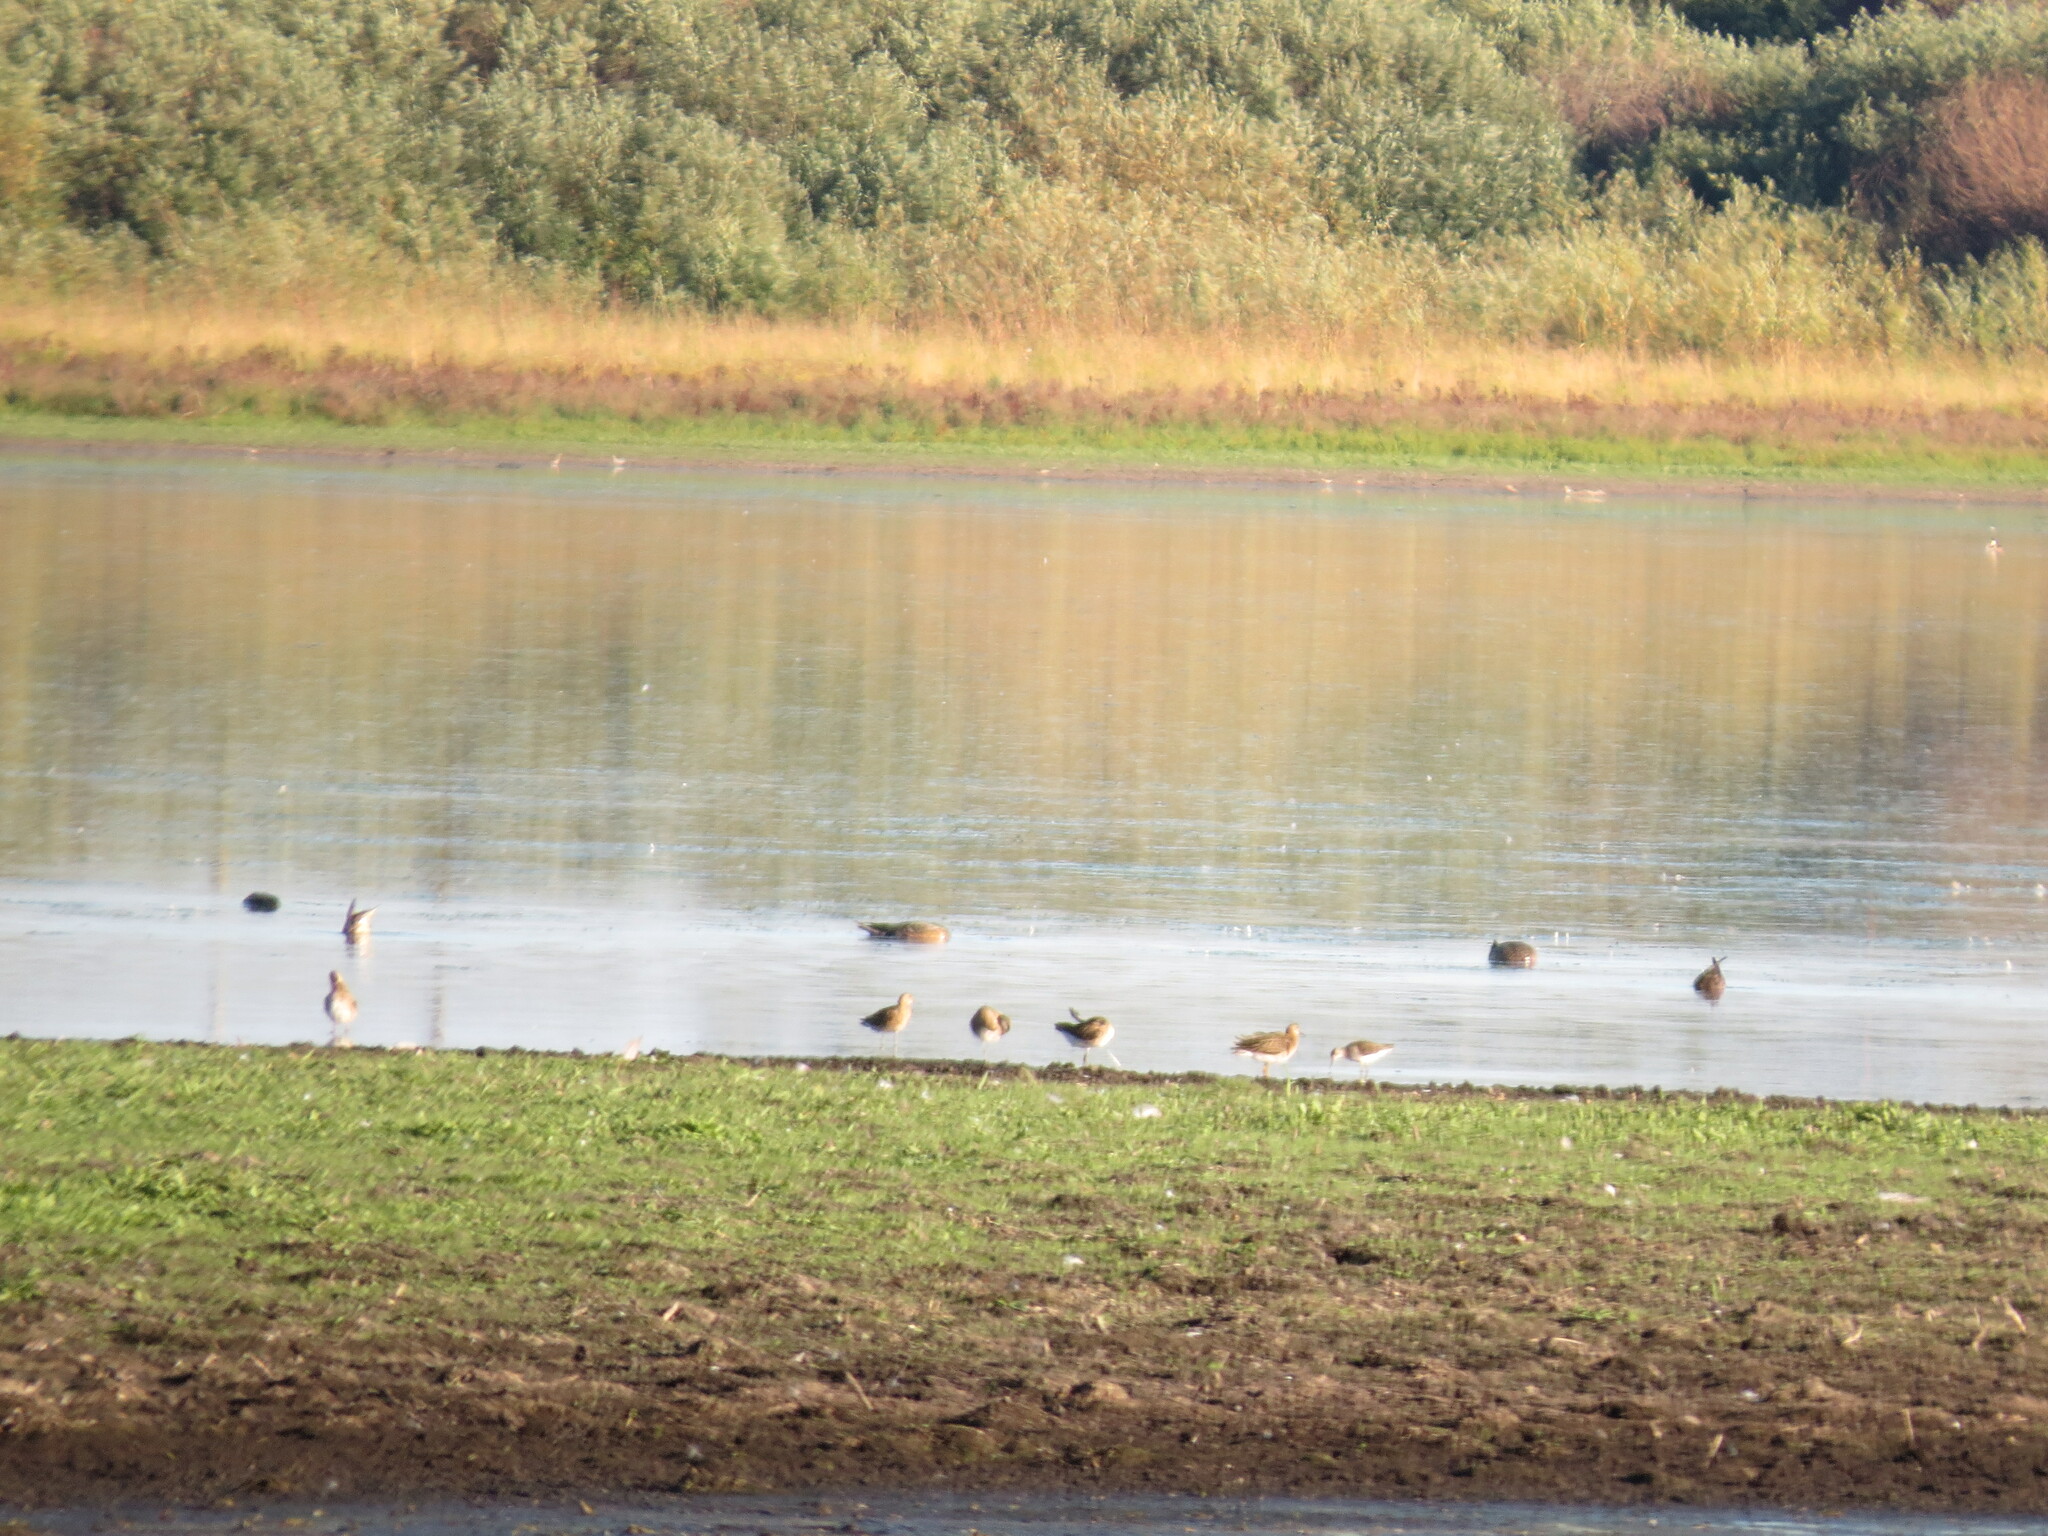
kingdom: Animalia
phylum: Chordata
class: Aves
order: Charadriiformes
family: Scolopacidae
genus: Calidris
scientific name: Calidris pugnax
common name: Ruff
